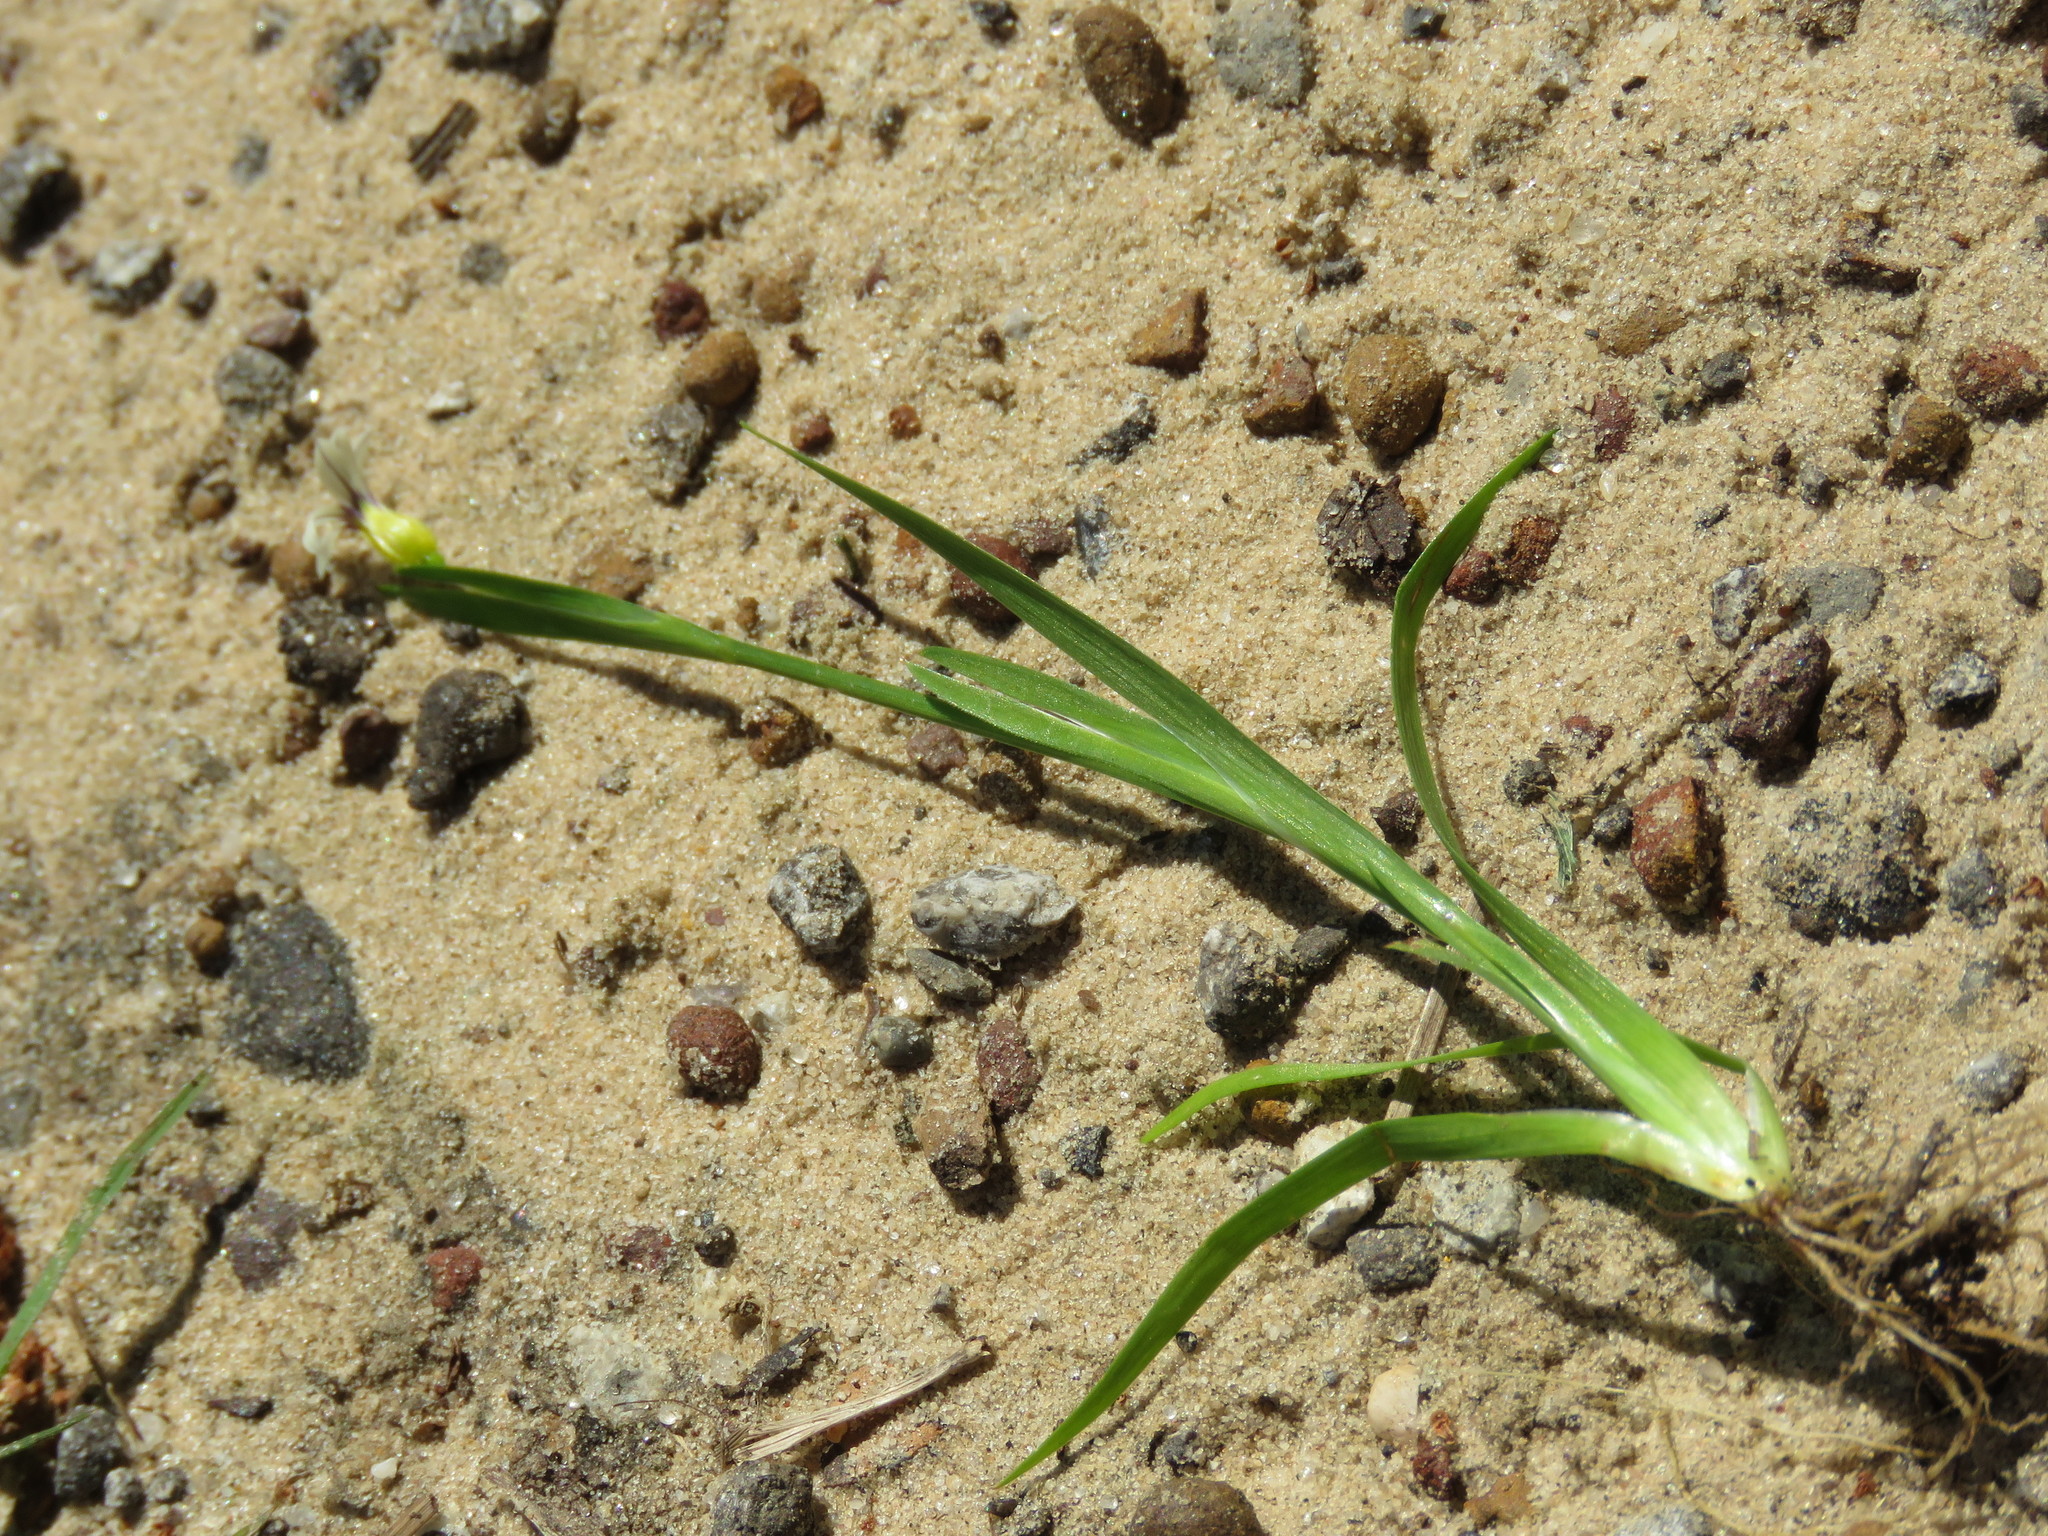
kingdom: Plantae
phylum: Tracheophyta
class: Liliopsida
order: Asparagales
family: Iridaceae
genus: Sisyrinchium
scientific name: Sisyrinchium micranthum
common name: Bermuda pigroot
